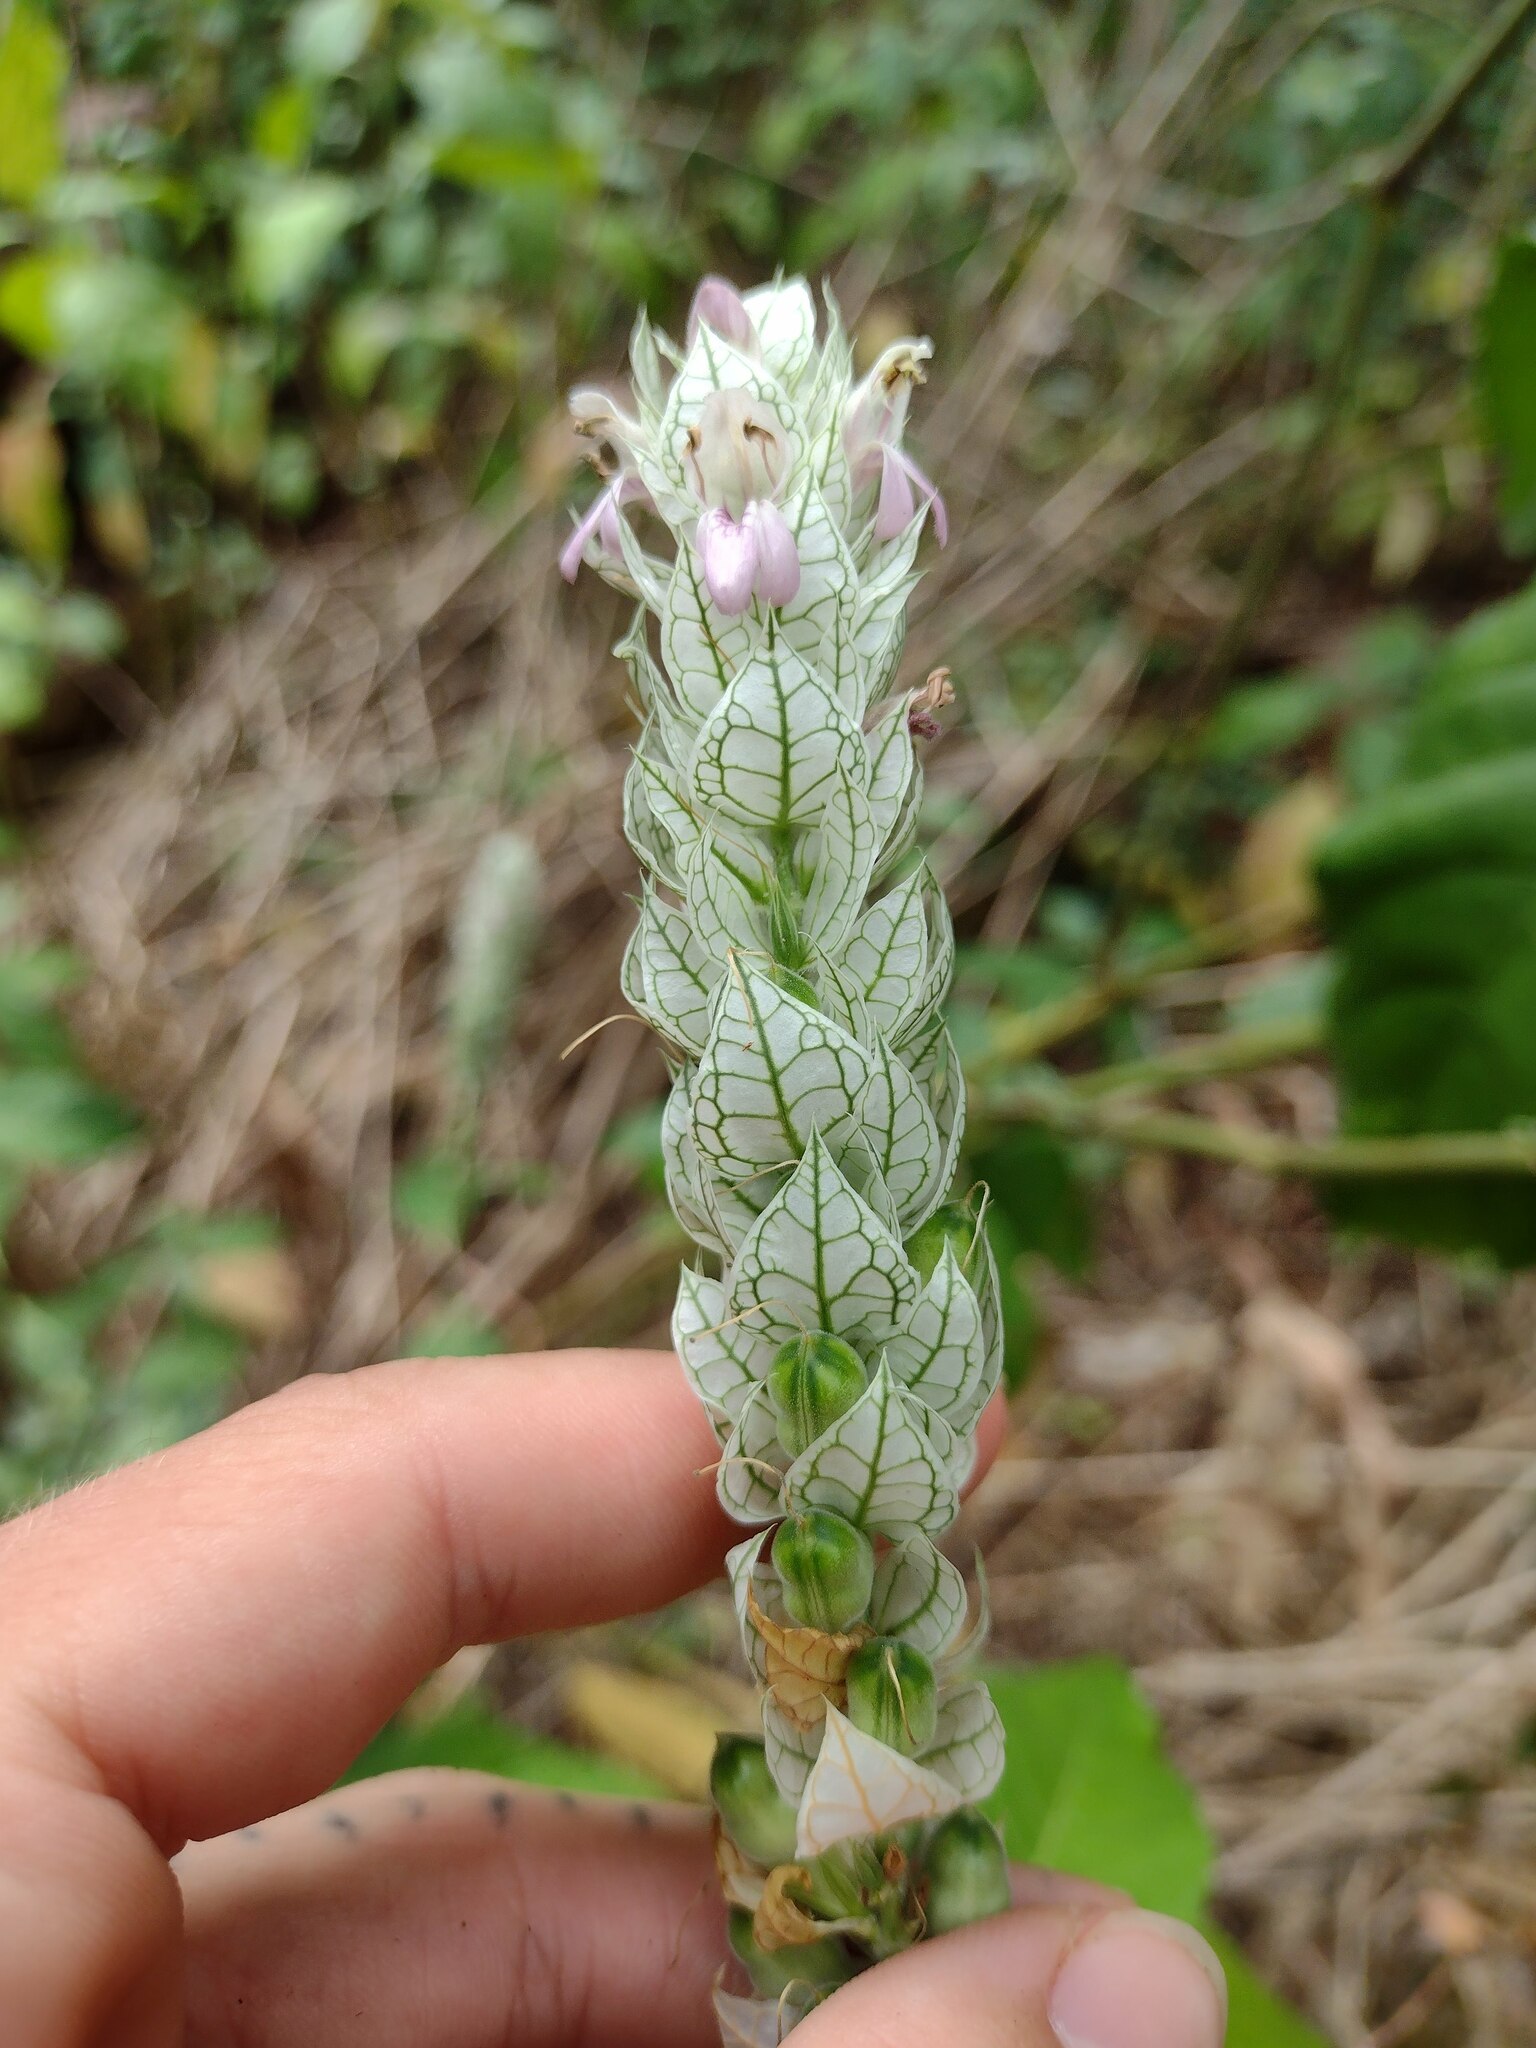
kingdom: Plantae
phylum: Tracheophyta
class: Magnoliopsida
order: Lamiales
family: Acanthaceae
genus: Justicia
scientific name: Justicia betonica
